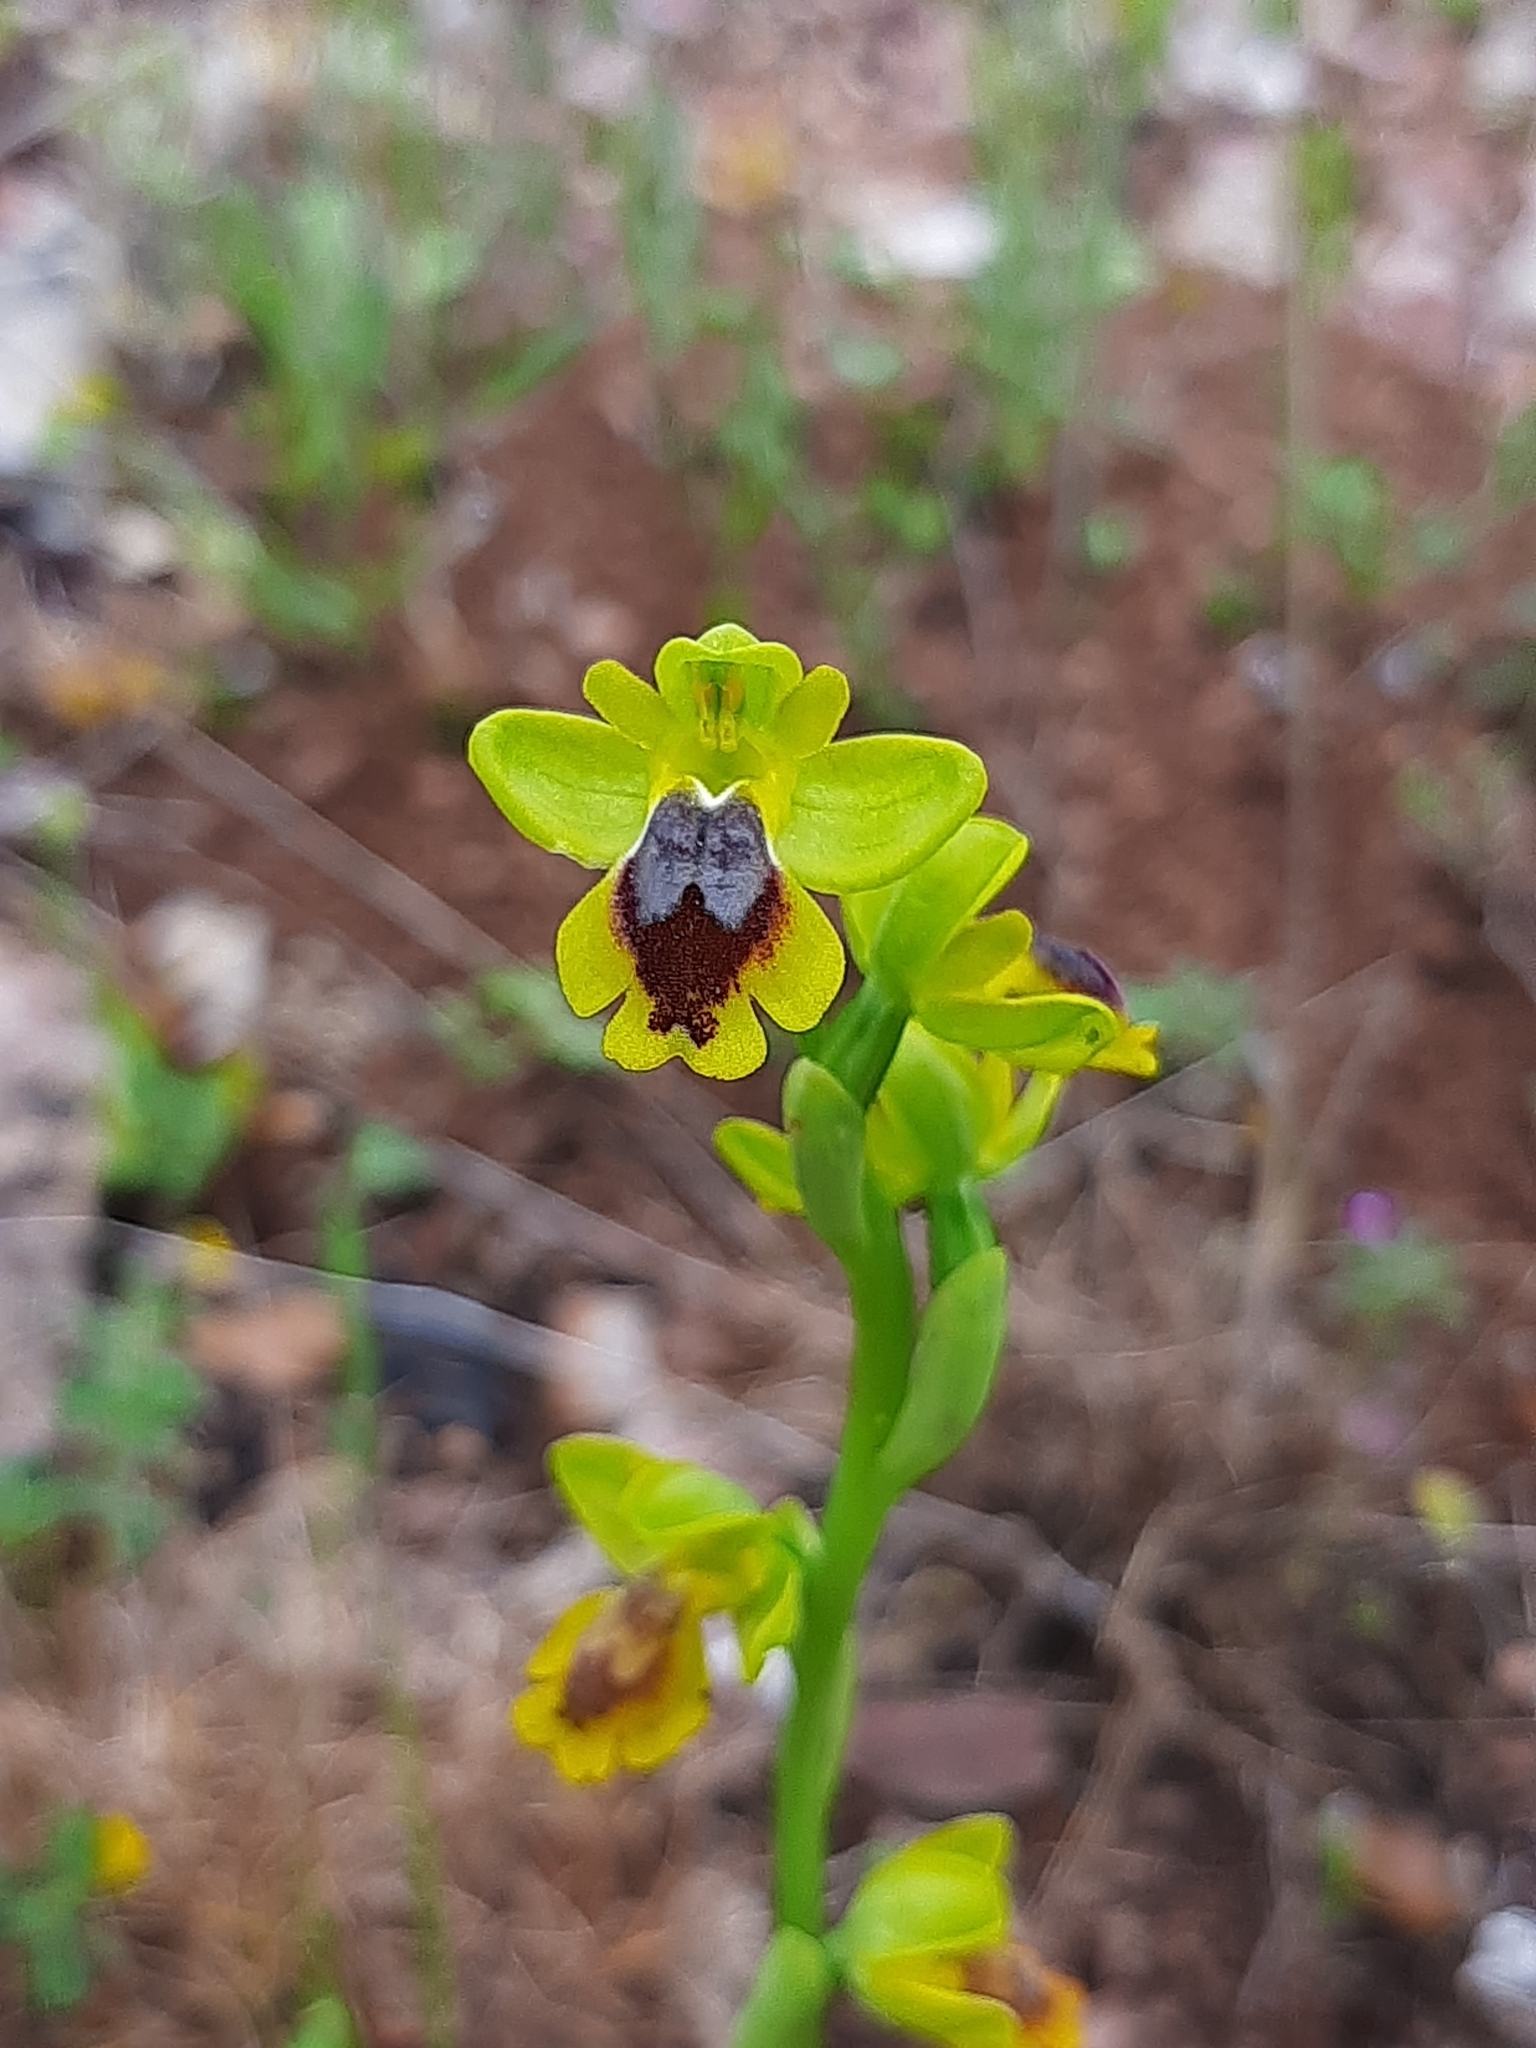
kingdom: Plantae
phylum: Tracheophyta
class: Liliopsida
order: Asparagales
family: Orchidaceae
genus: Ophrys
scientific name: Ophrys lutea
